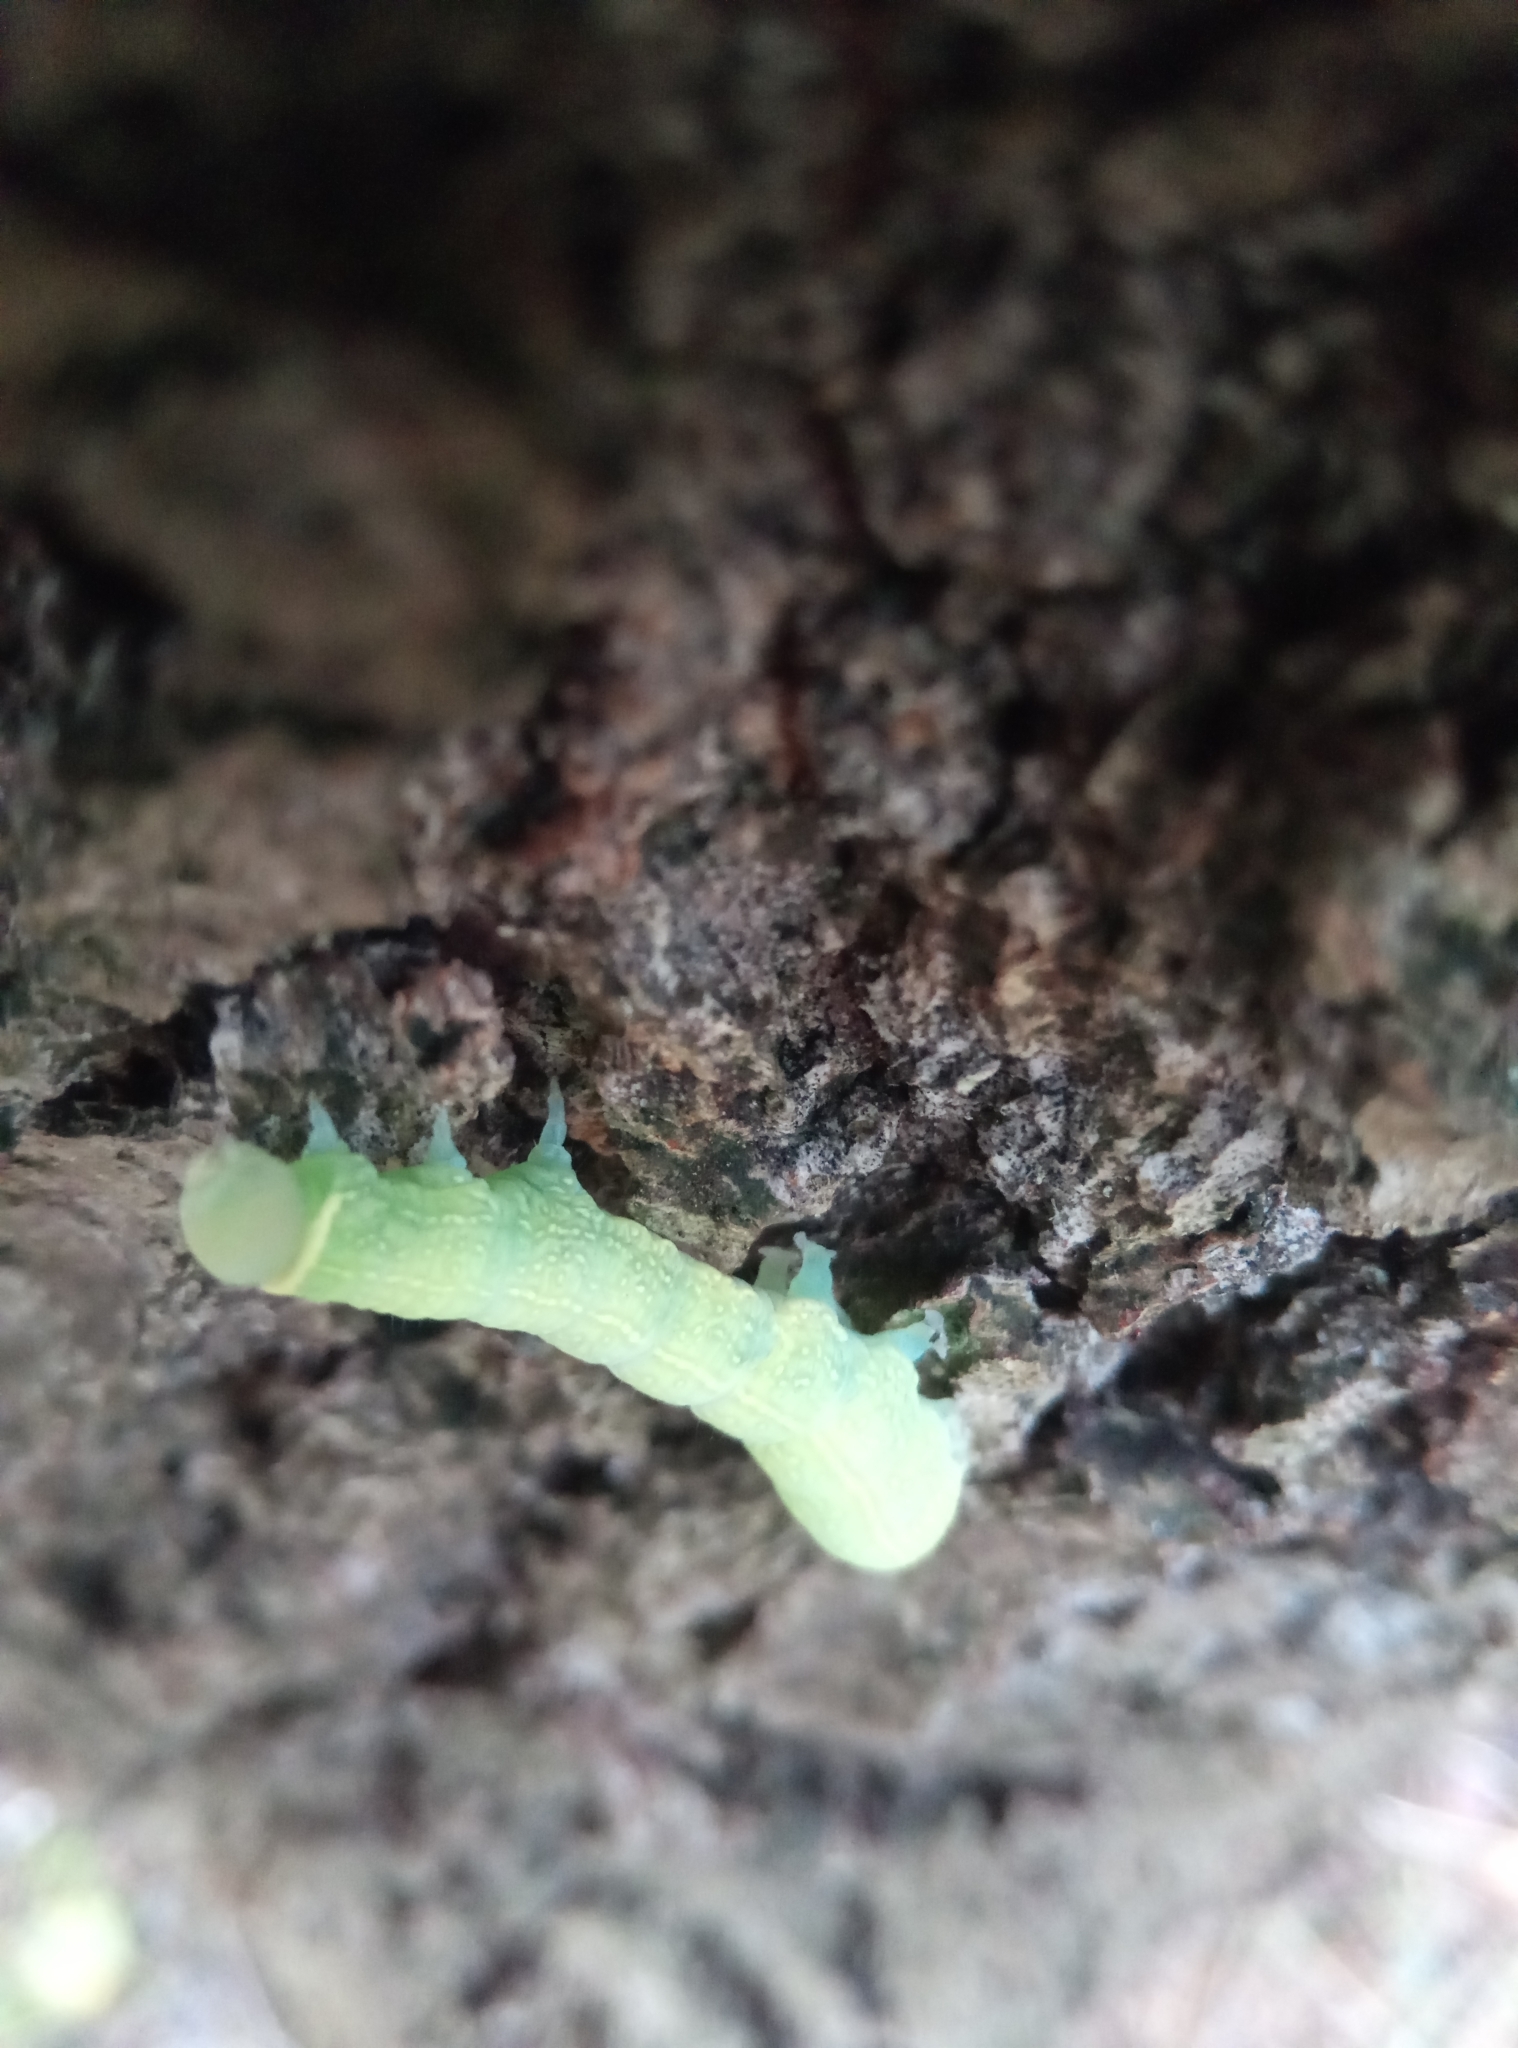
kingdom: Animalia
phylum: Arthropoda
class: Insecta
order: Lepidoptera
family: Nolidae
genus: Pseudoips
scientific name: Pseudoips prasinana
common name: Green silver-lines
